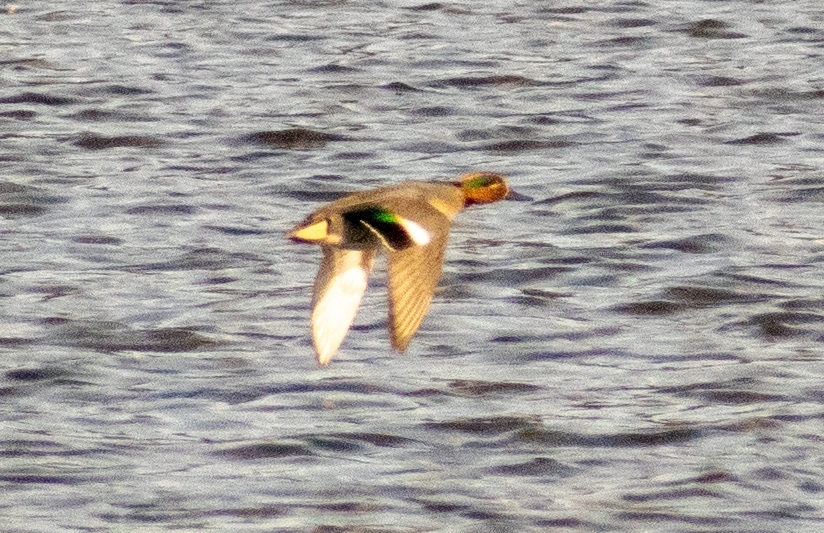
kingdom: Animalia
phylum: Chordata
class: Aves
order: Anseriformes
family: Anatidae
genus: Anas
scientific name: Anas crecca
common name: Eurasian teal
